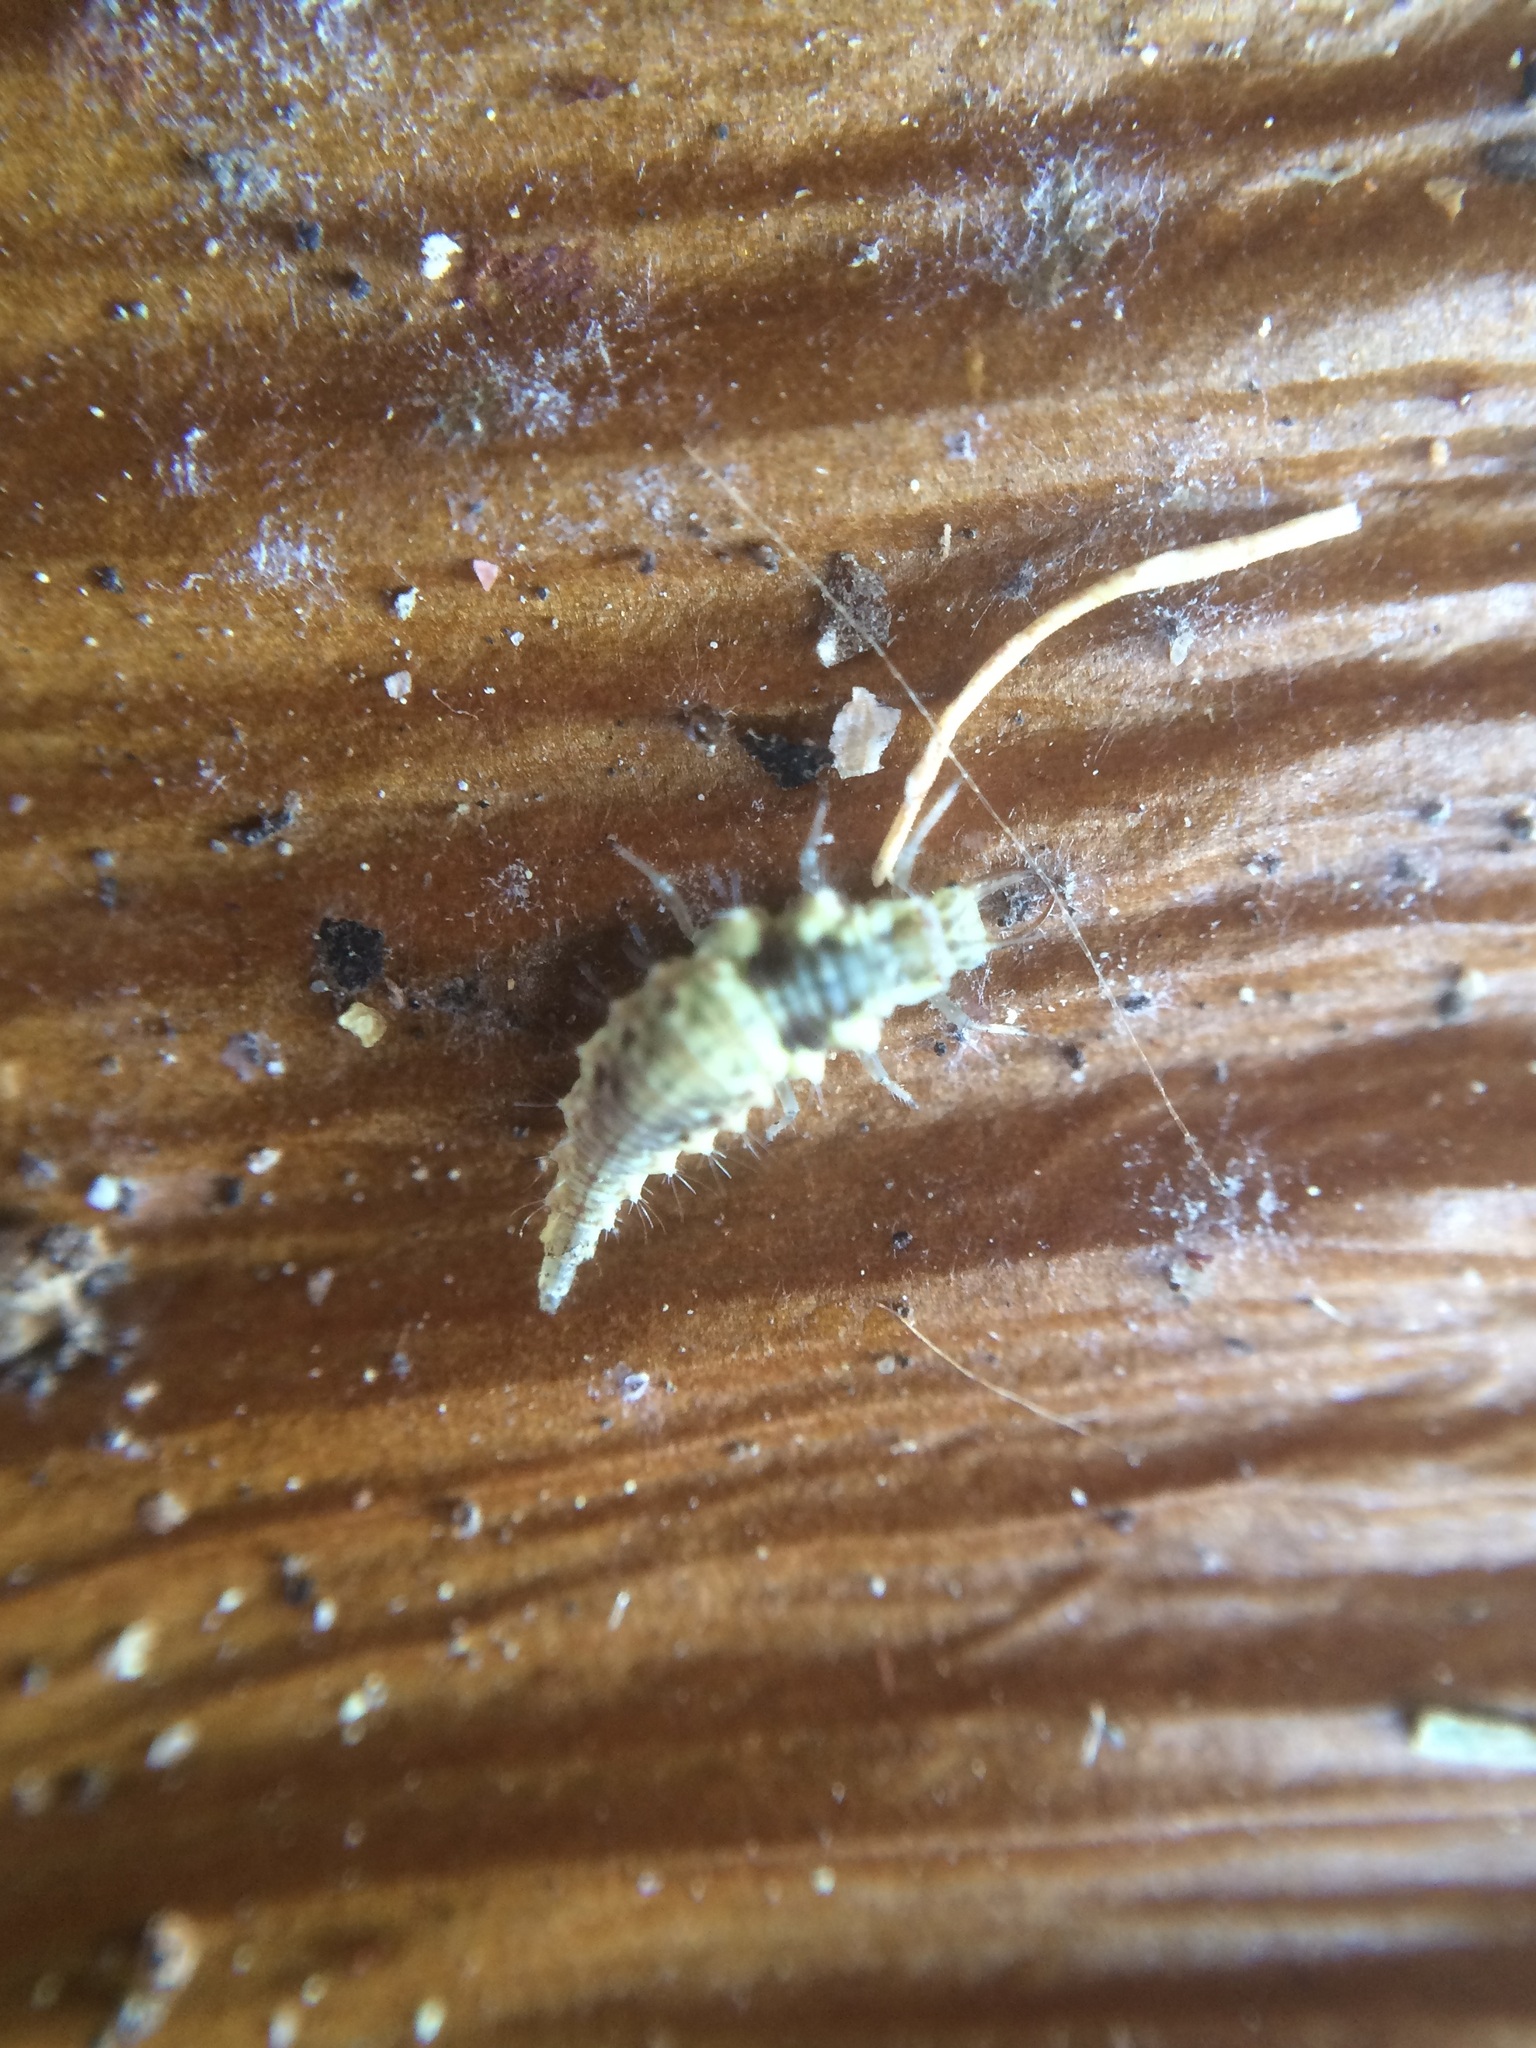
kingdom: Animalia
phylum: Arthropoda
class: Insecta
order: Neuroptera
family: Chrysopidae
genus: Chrysoperla
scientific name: Chrysoperla comanche
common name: Green lacewing
